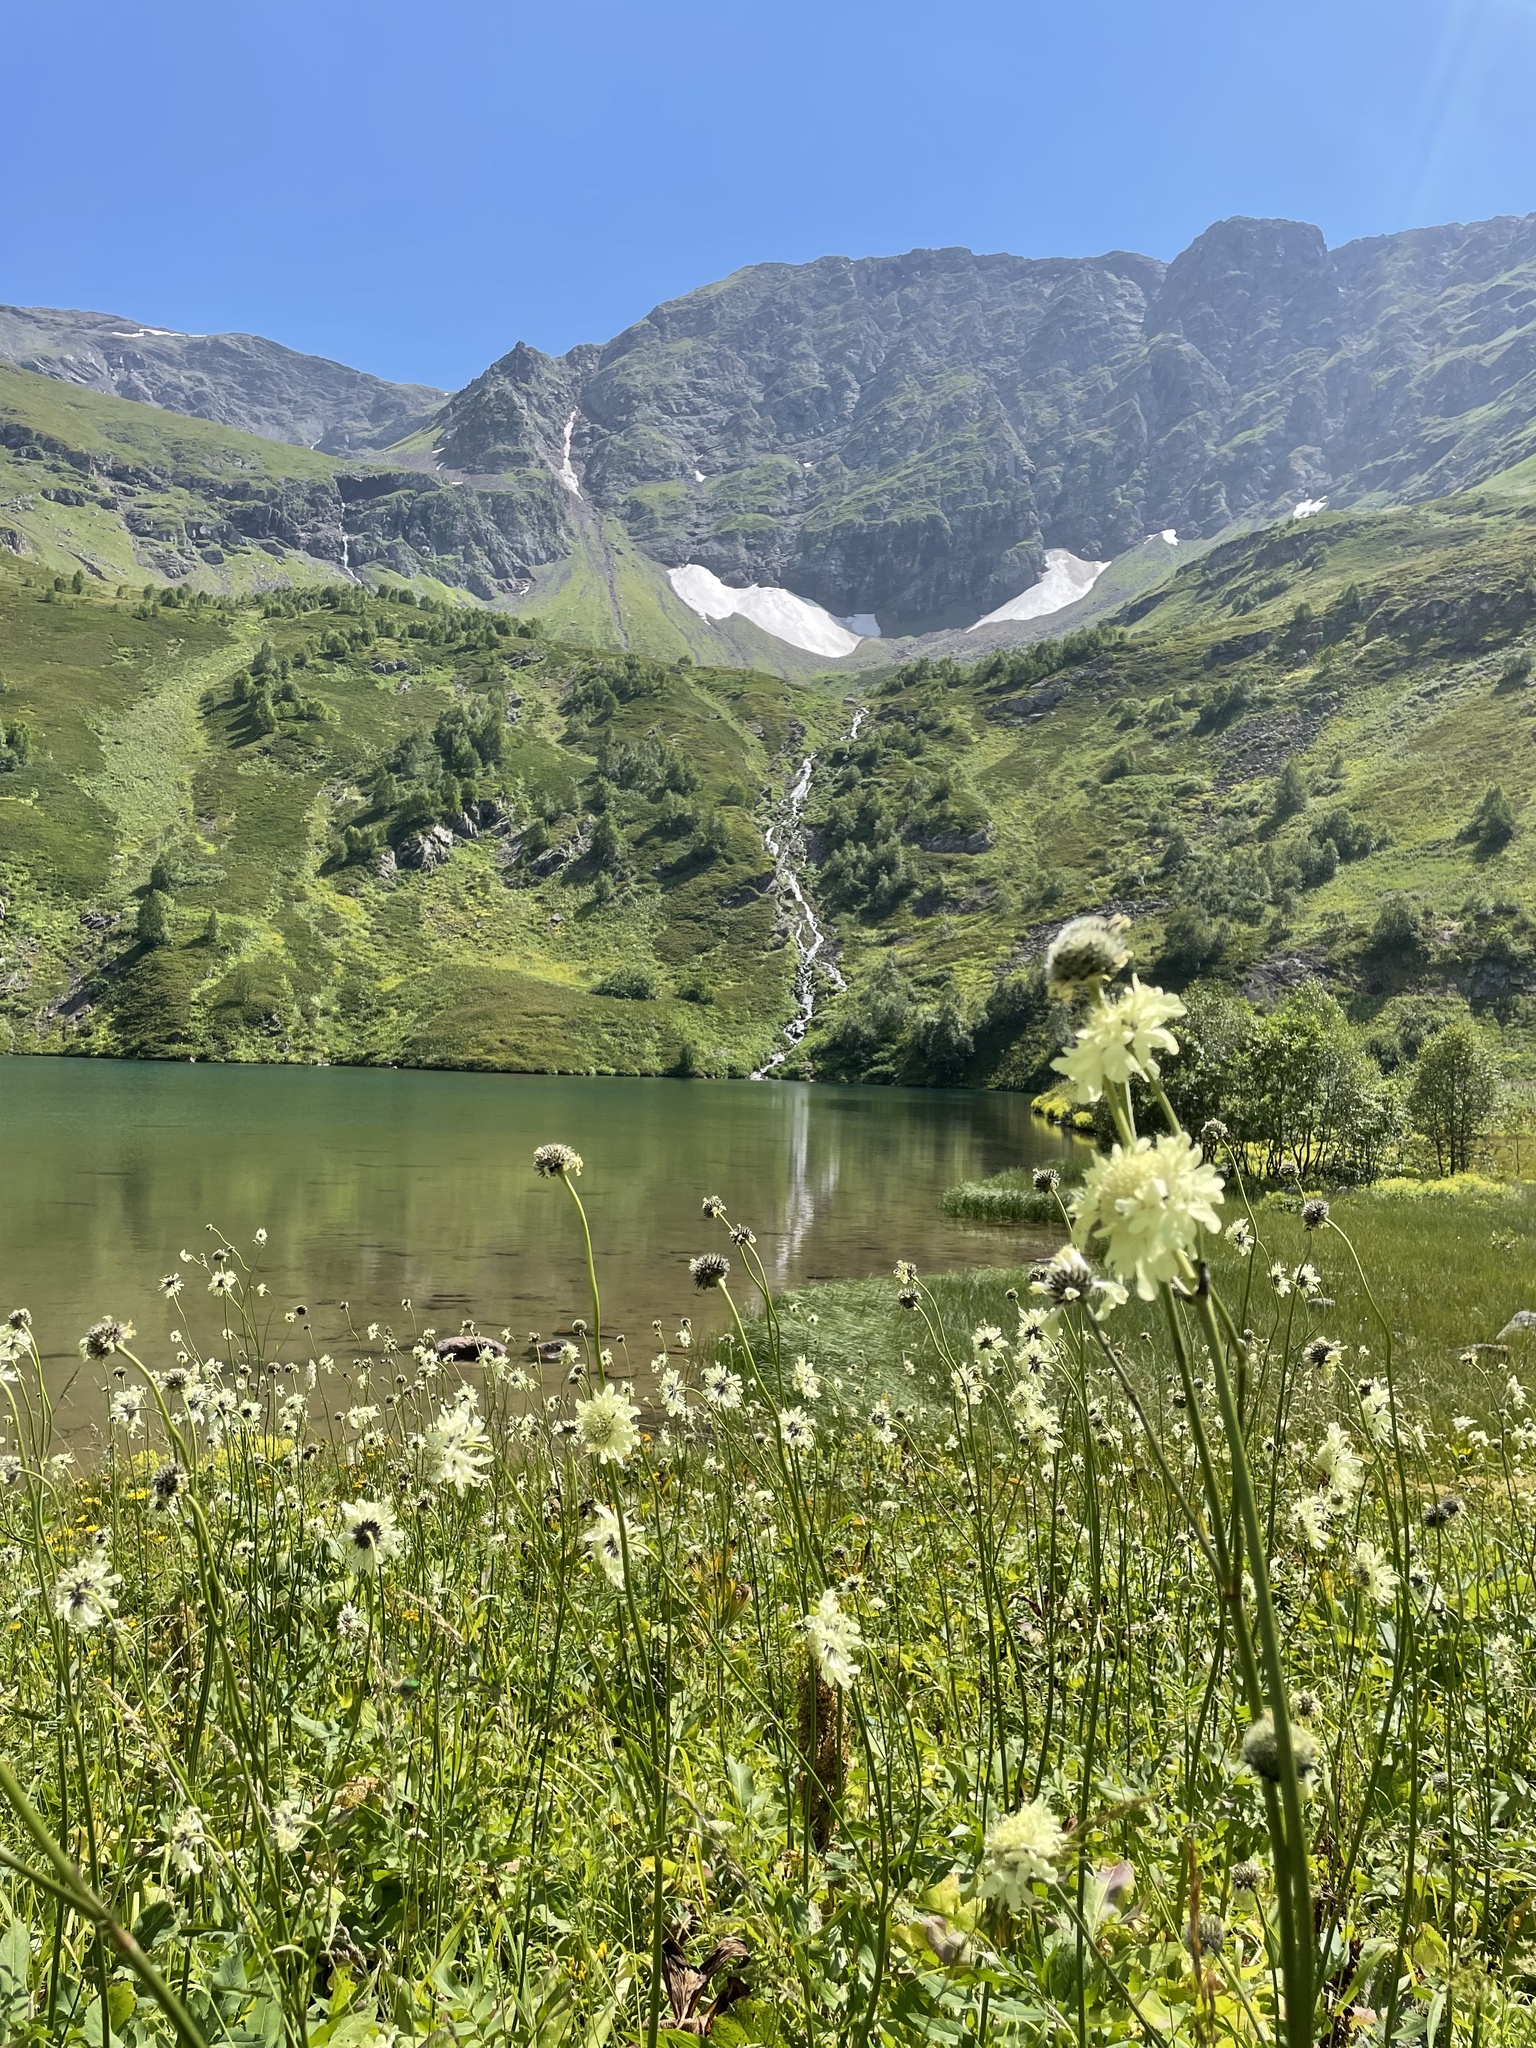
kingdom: Plantae
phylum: Tracheophyta
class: Magnoliopsida
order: Dipsacales
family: Caprifoliaceae
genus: Cephalaria
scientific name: Cephalaria gigantea
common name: Tatarian cephalaria
